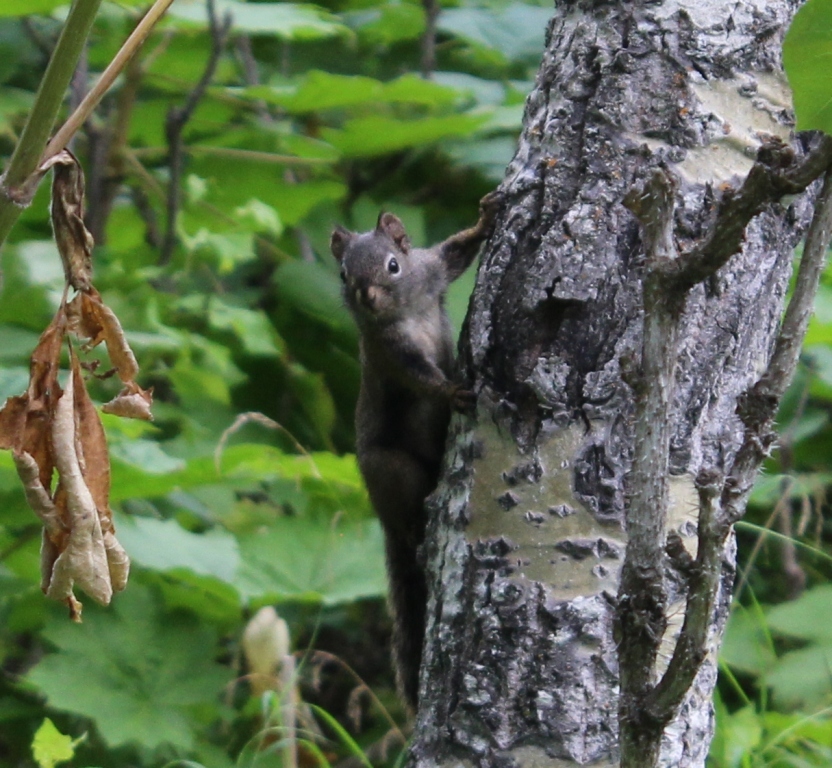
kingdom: Animalia
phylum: Chordata
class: Mammalia
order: Rodentia
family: Sciuridae
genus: Tamiasciurus
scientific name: Tamiasciurus hudsonicus
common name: Red squirrel
